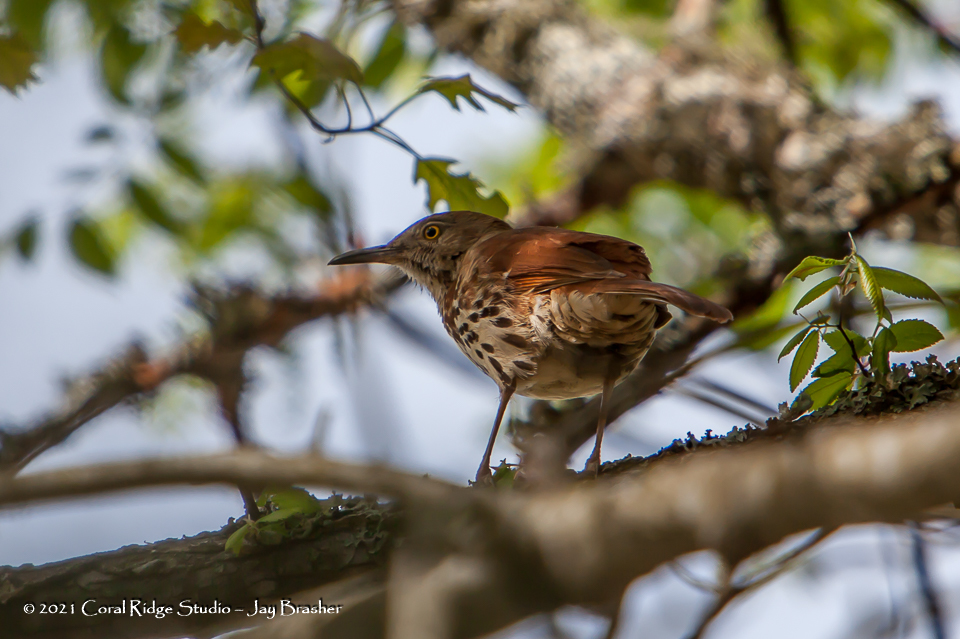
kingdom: Animalia
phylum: Chordata
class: Aves
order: Passeriformes
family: Mimidae
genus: Toxostoma
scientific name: Toxostoma rufum
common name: Brown thrasher
